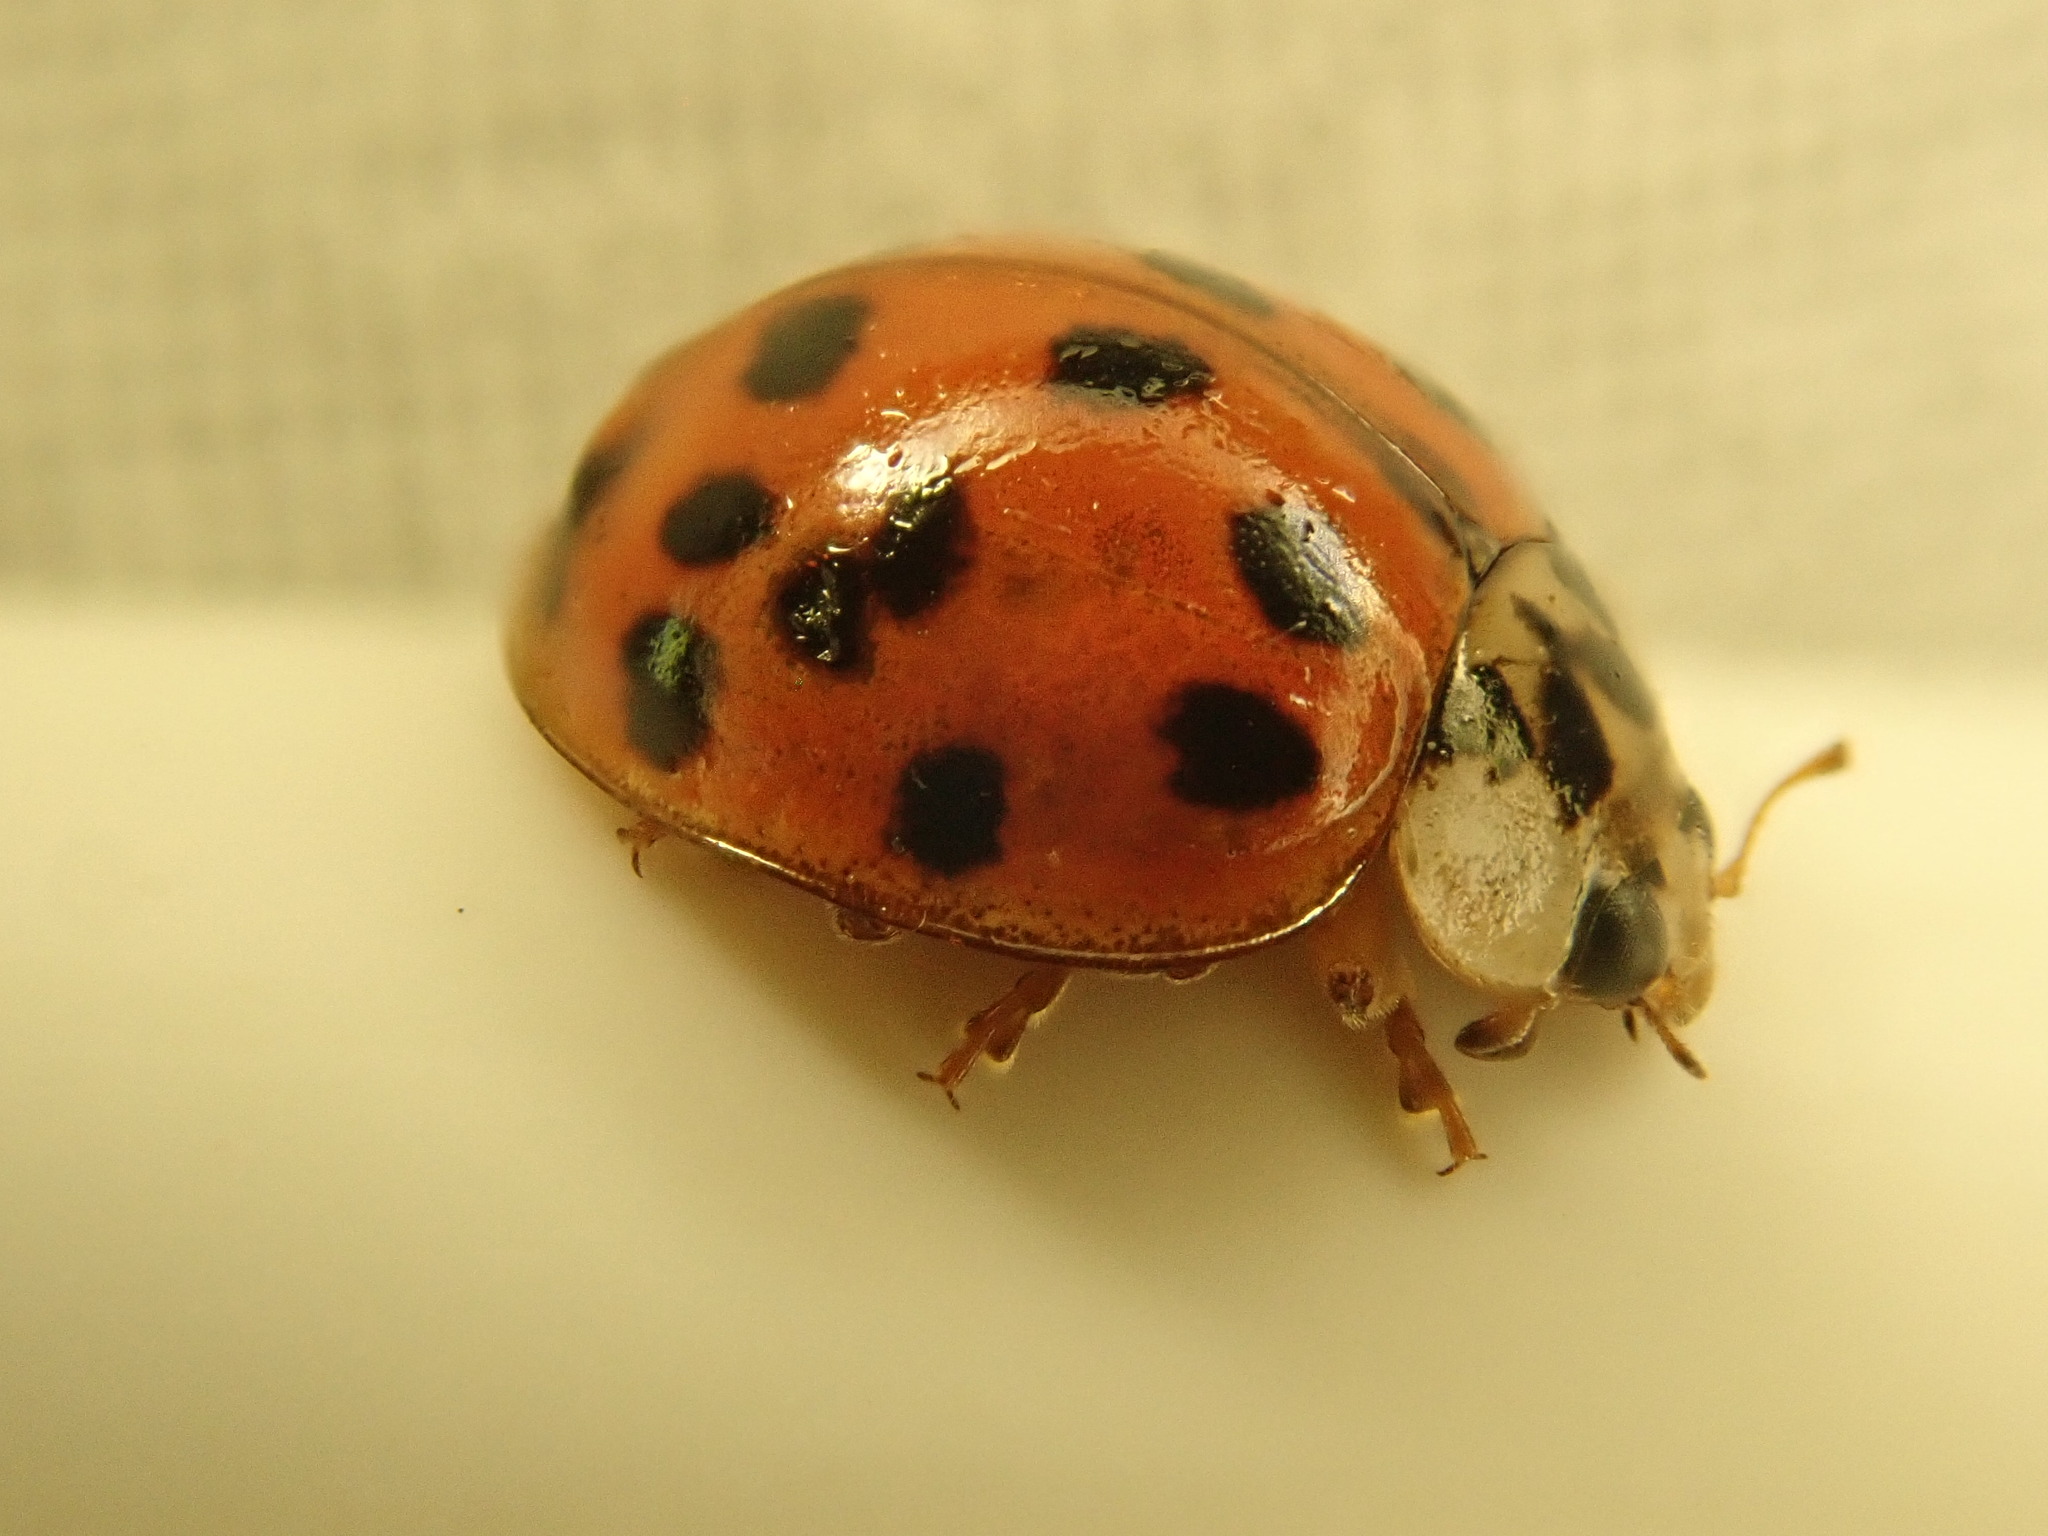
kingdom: Animalia
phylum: Arthropoda
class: Insecta
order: Coleoptera
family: Coccinellidae
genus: Harmonia
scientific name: Harmonia axyridis
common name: Harlequin ladybird
